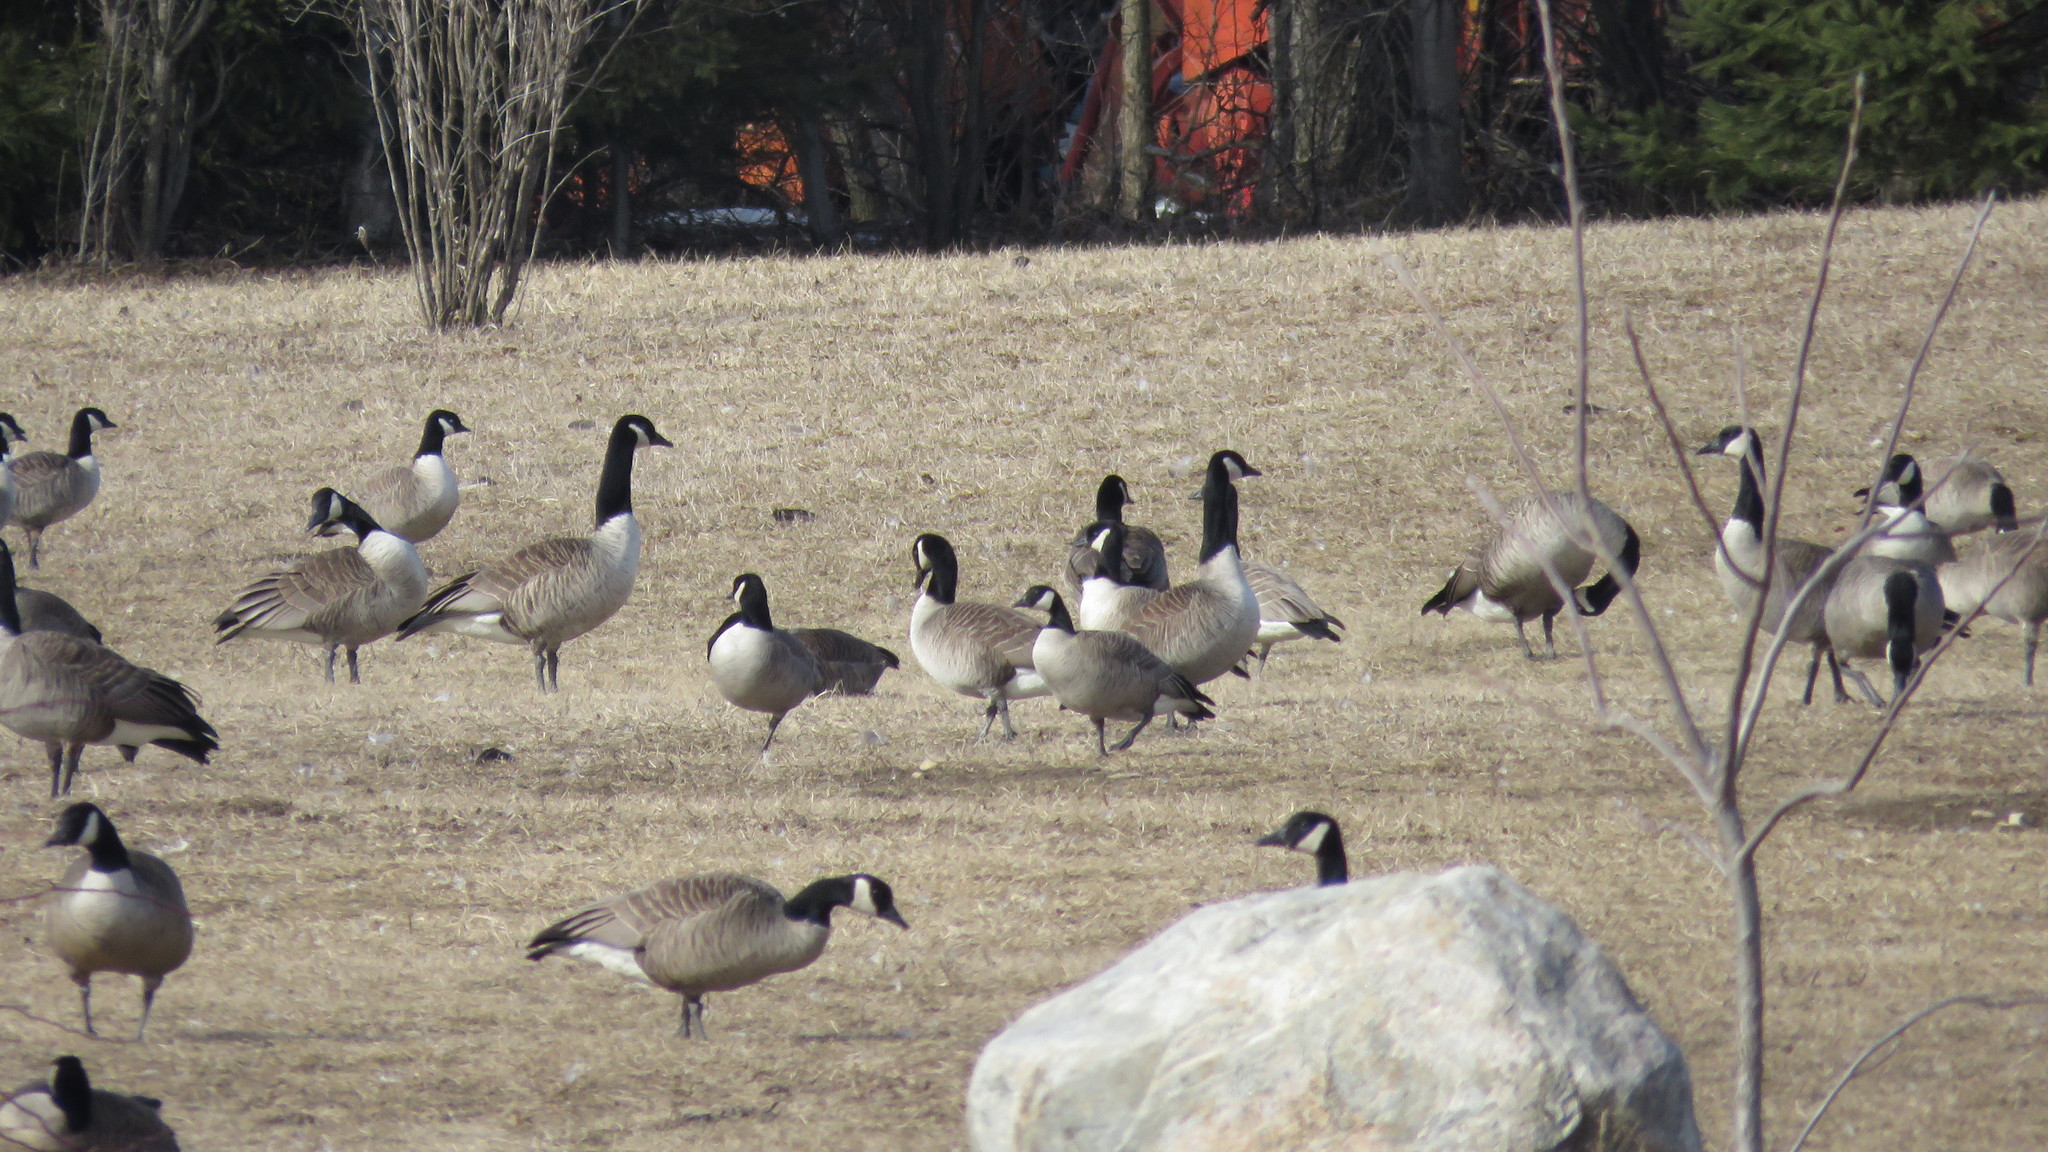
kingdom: Animalia
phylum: Chordata
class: Aves
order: Anseriformes
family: Anatidae
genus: Branta
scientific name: Branta hutchinsii
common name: Cackling goose
